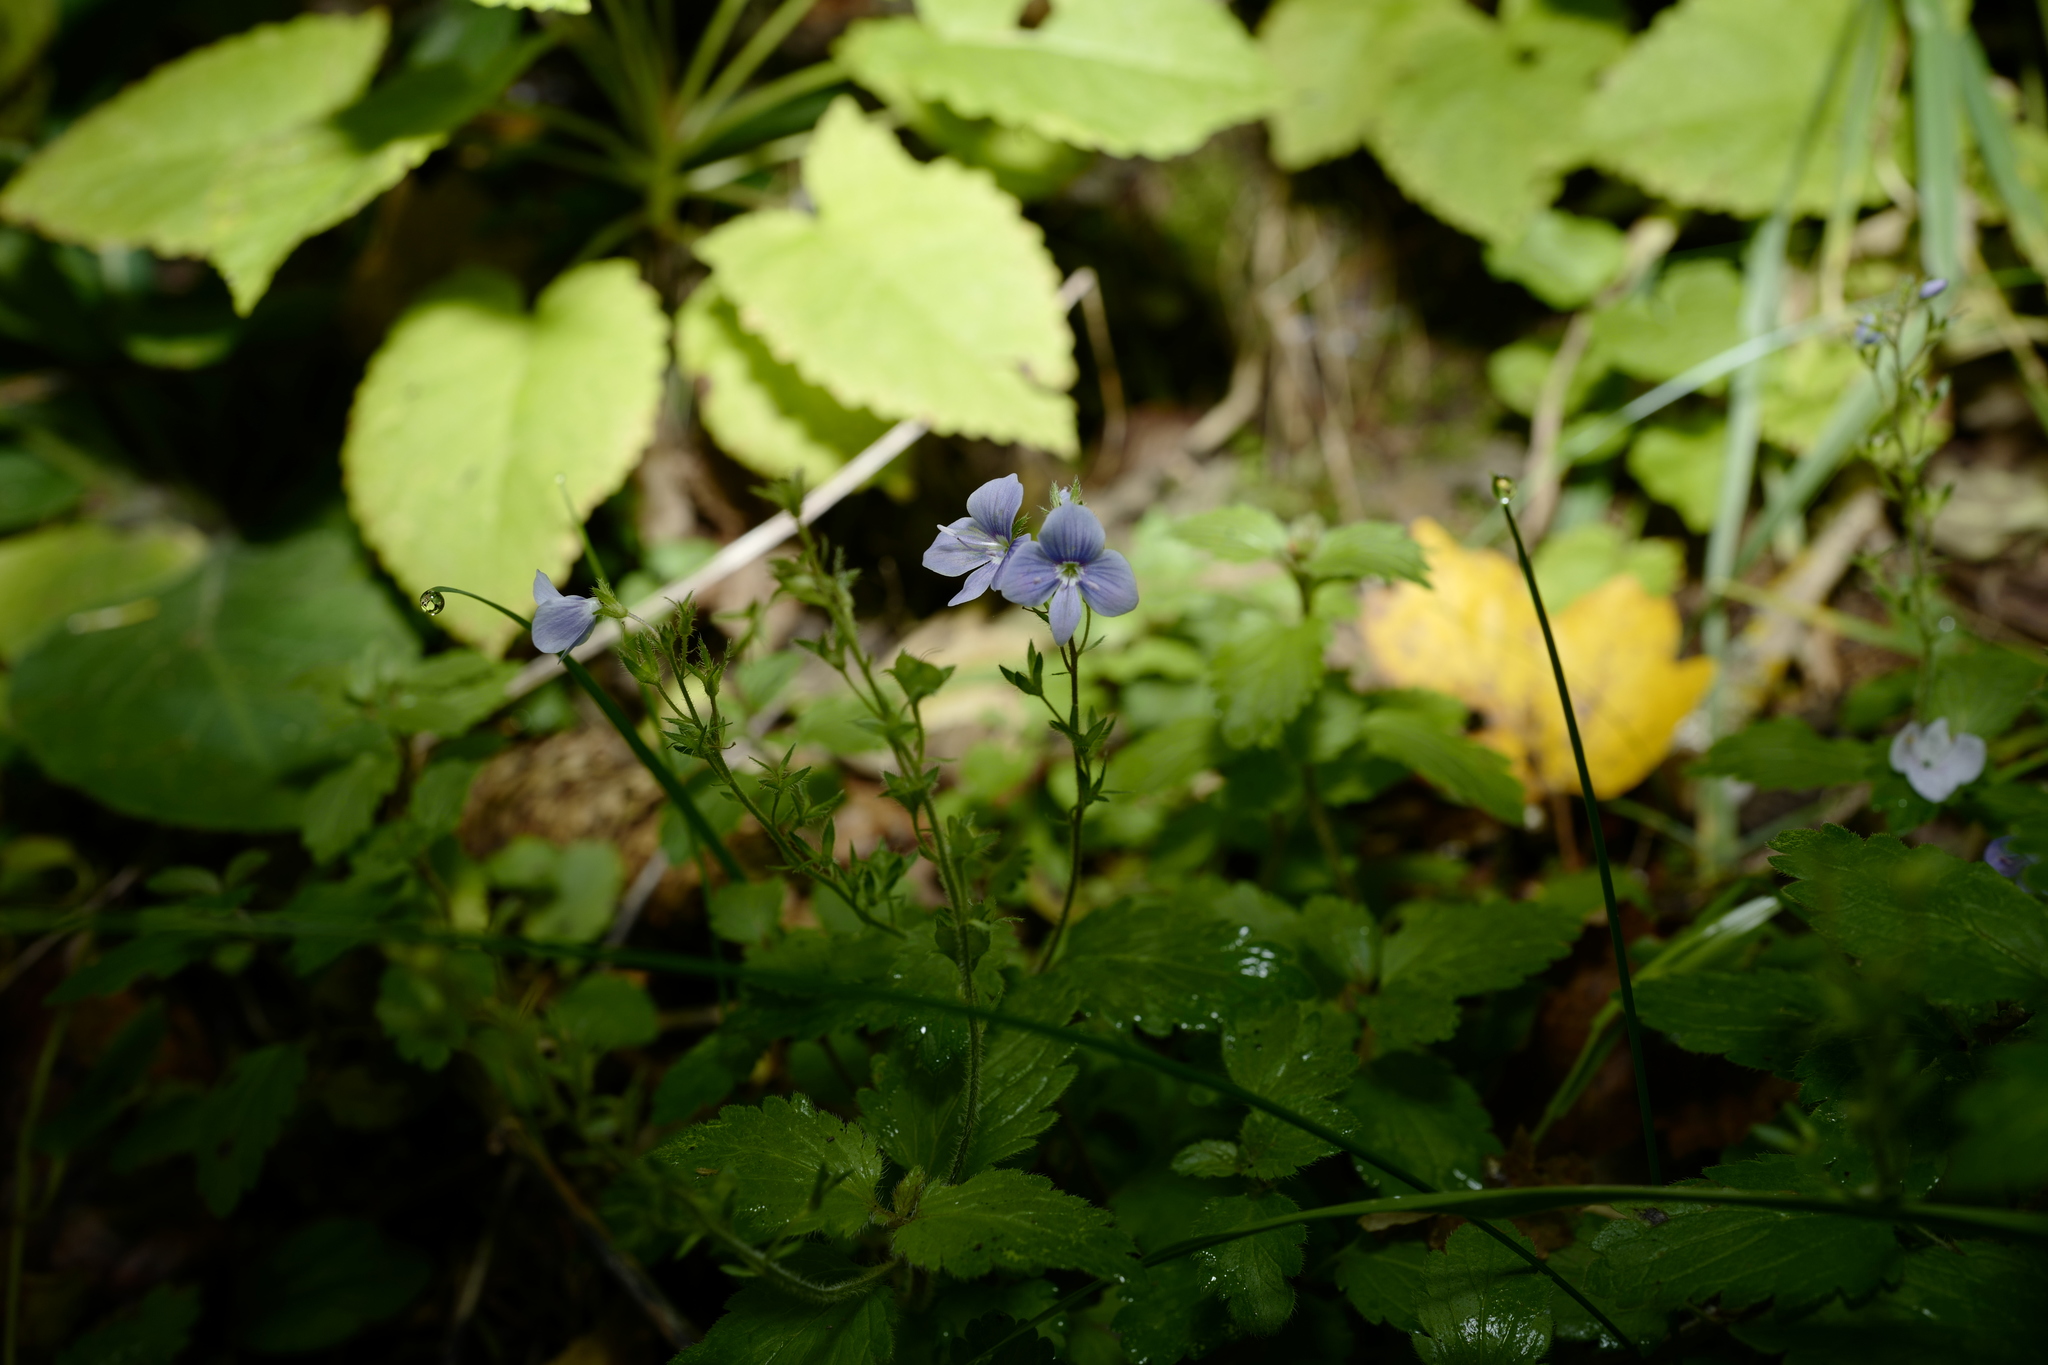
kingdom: Plantae
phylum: Tracheophyta
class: Magnoliopsida
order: Lamiales
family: Plantaginaceae
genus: Veronica
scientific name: Veronica chamaedrys
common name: Germander speedwell
